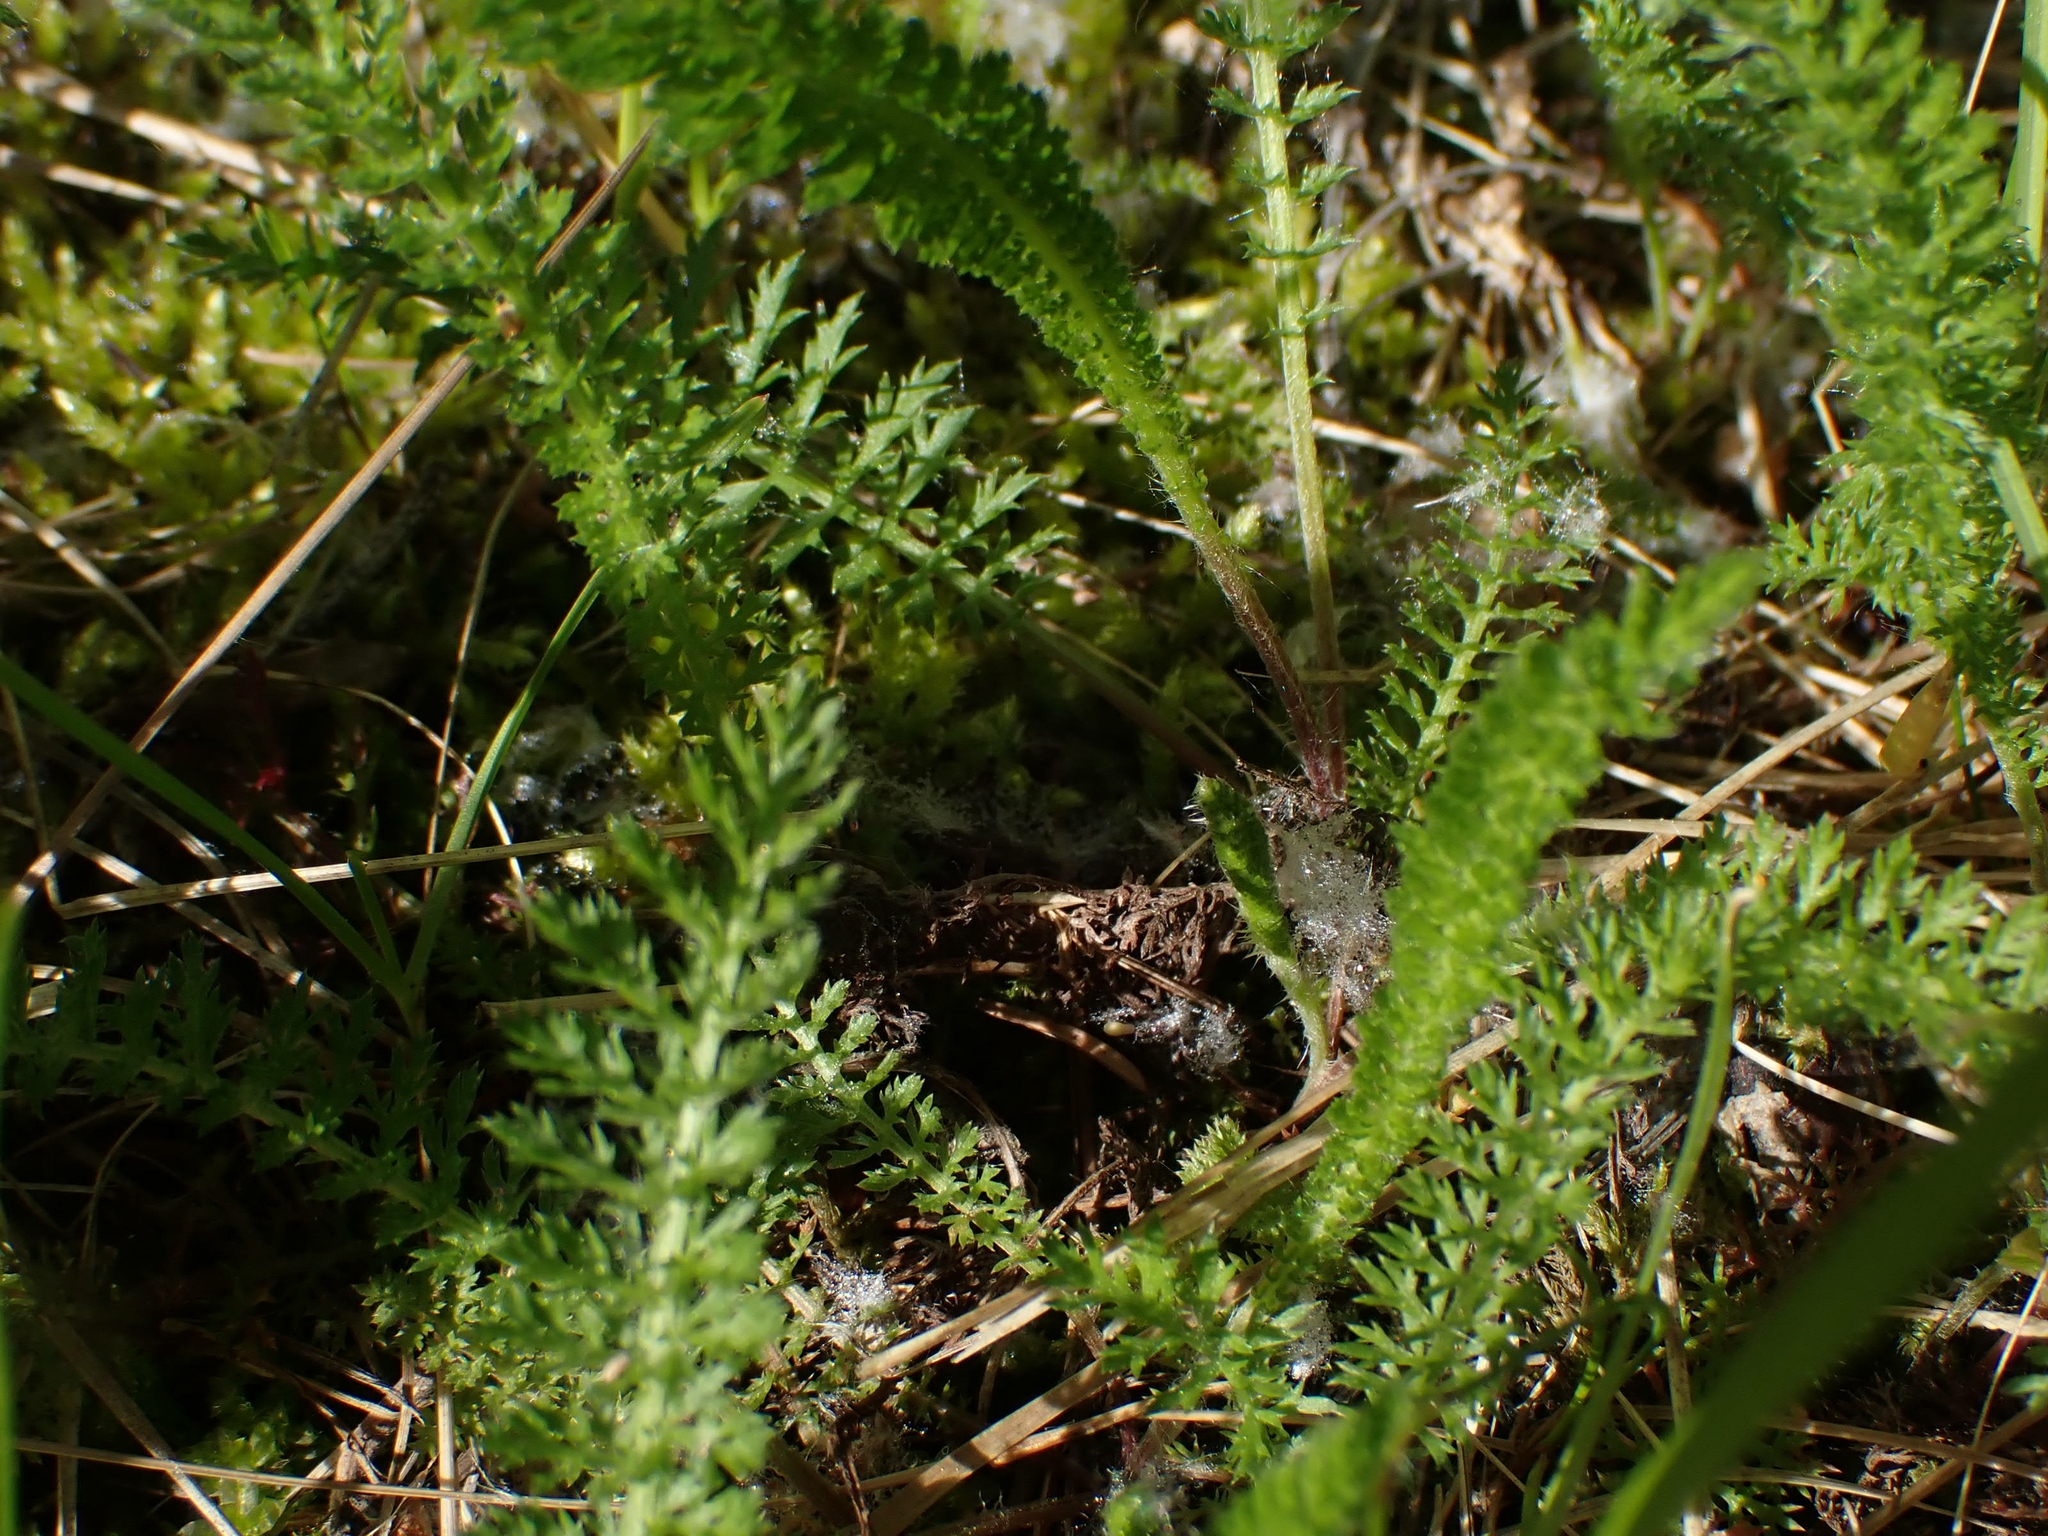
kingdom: Plantae
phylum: Tracheophyta
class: Magnoliopsida
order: Asterales
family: Asteraceae
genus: Achillea
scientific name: Achillea millefolium
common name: Yarrow
